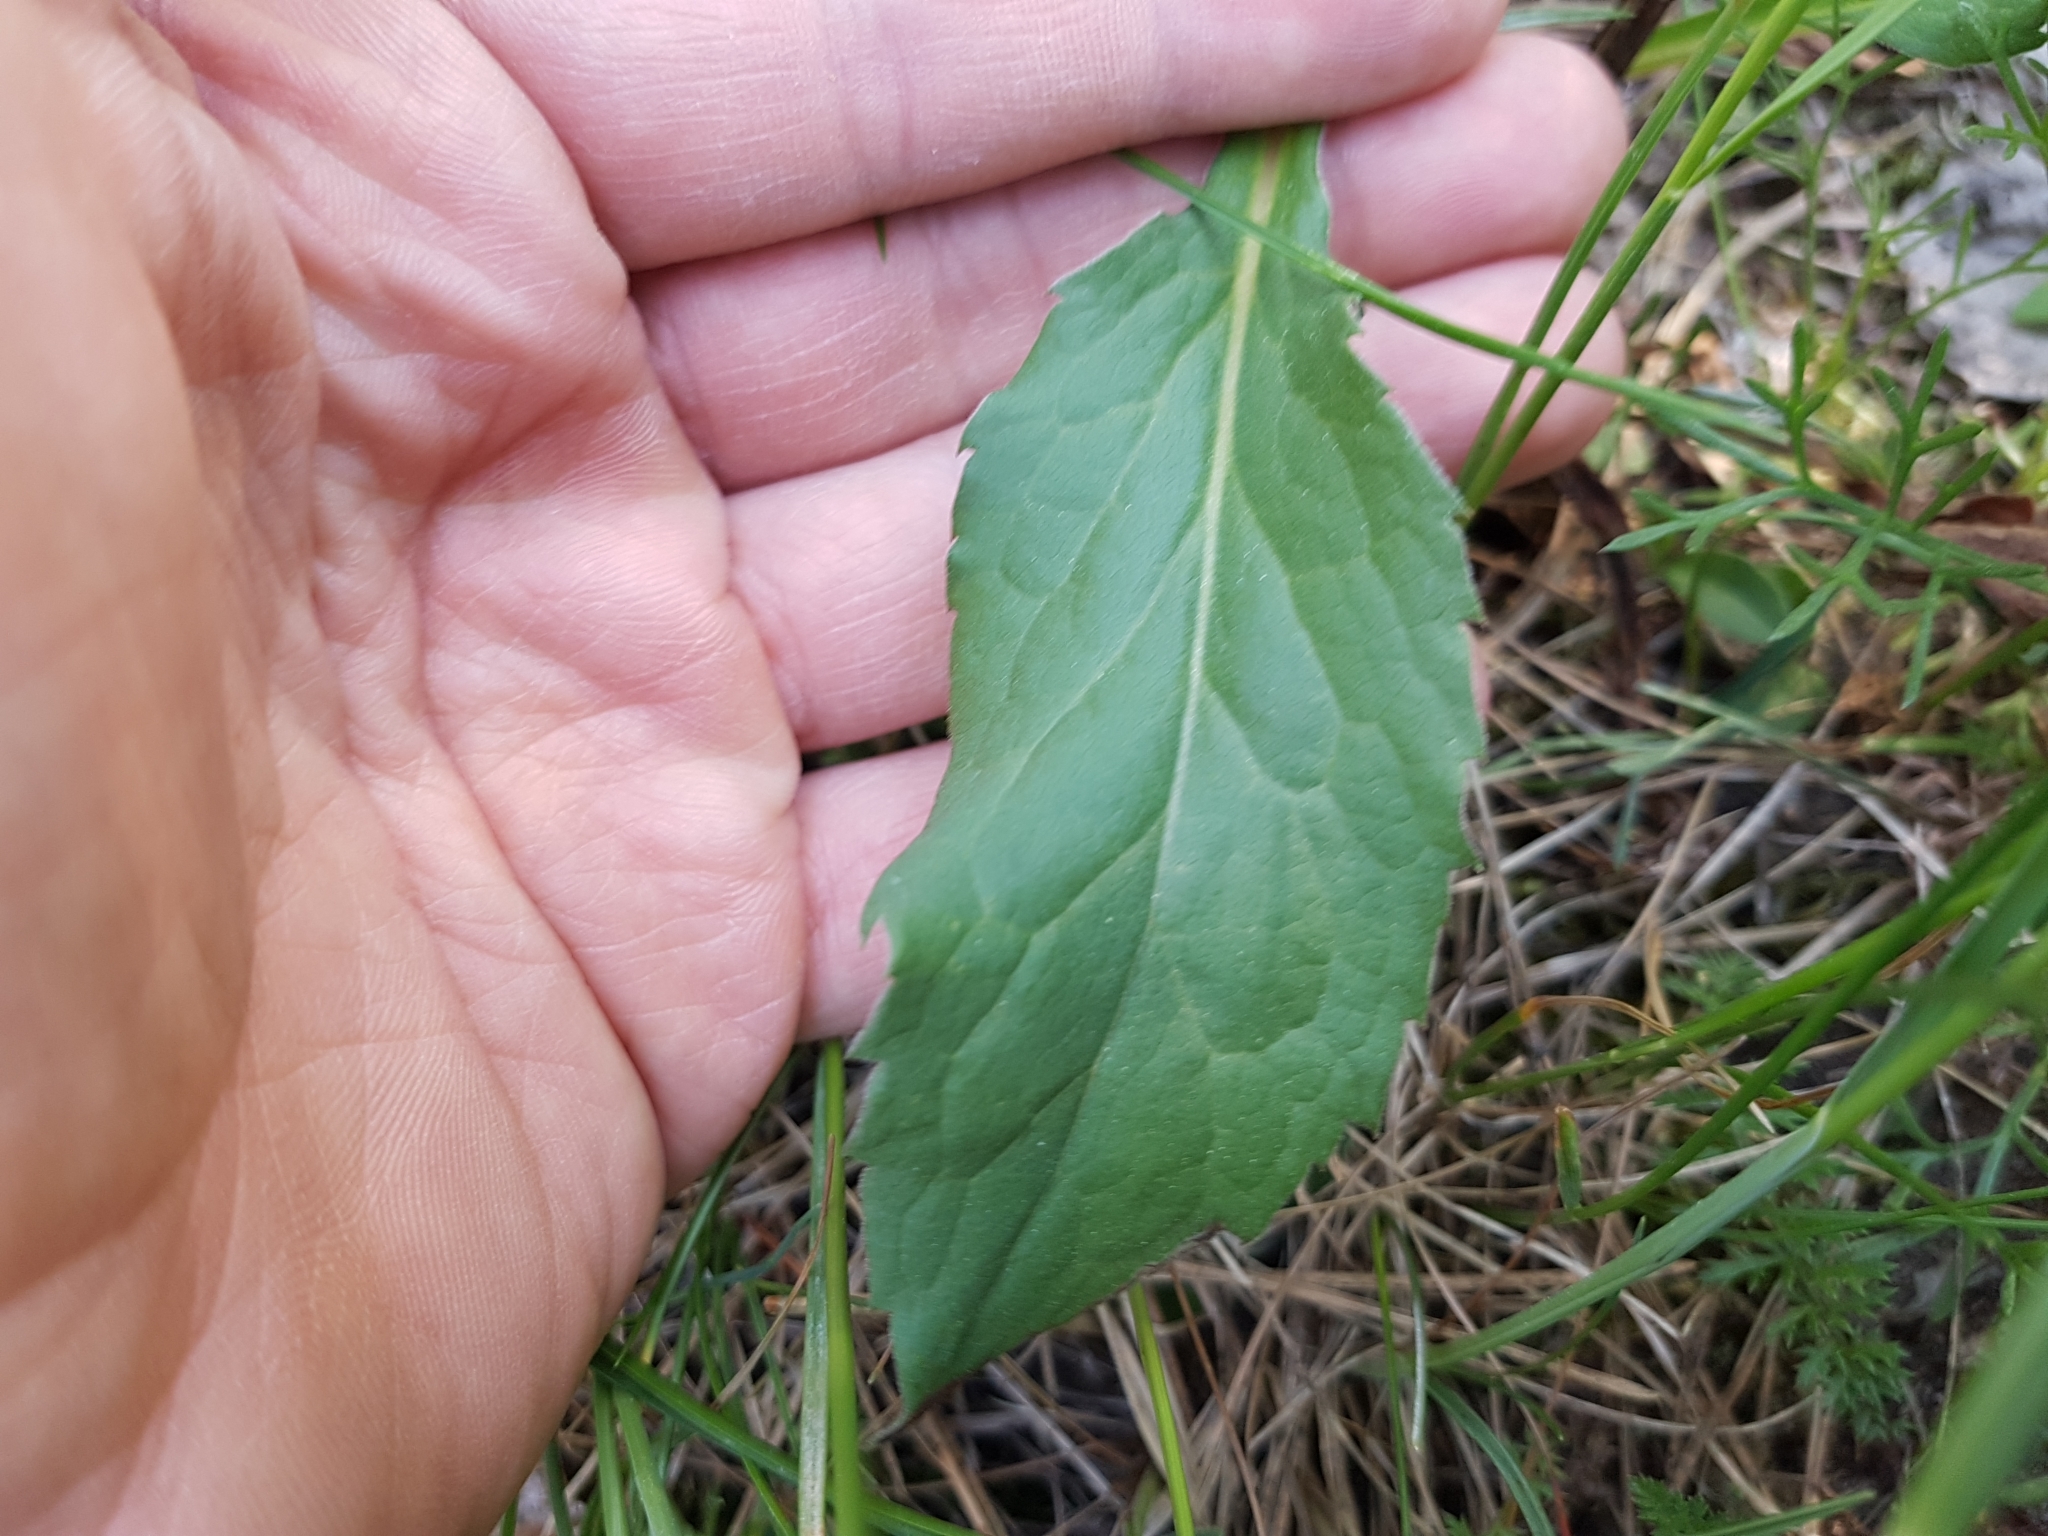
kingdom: Plantae
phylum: Tracheophyta
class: Magnoliopsida
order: Asterales
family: Asteraceae
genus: Solidago
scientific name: Solidago virgaurea
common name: Goldenrod
